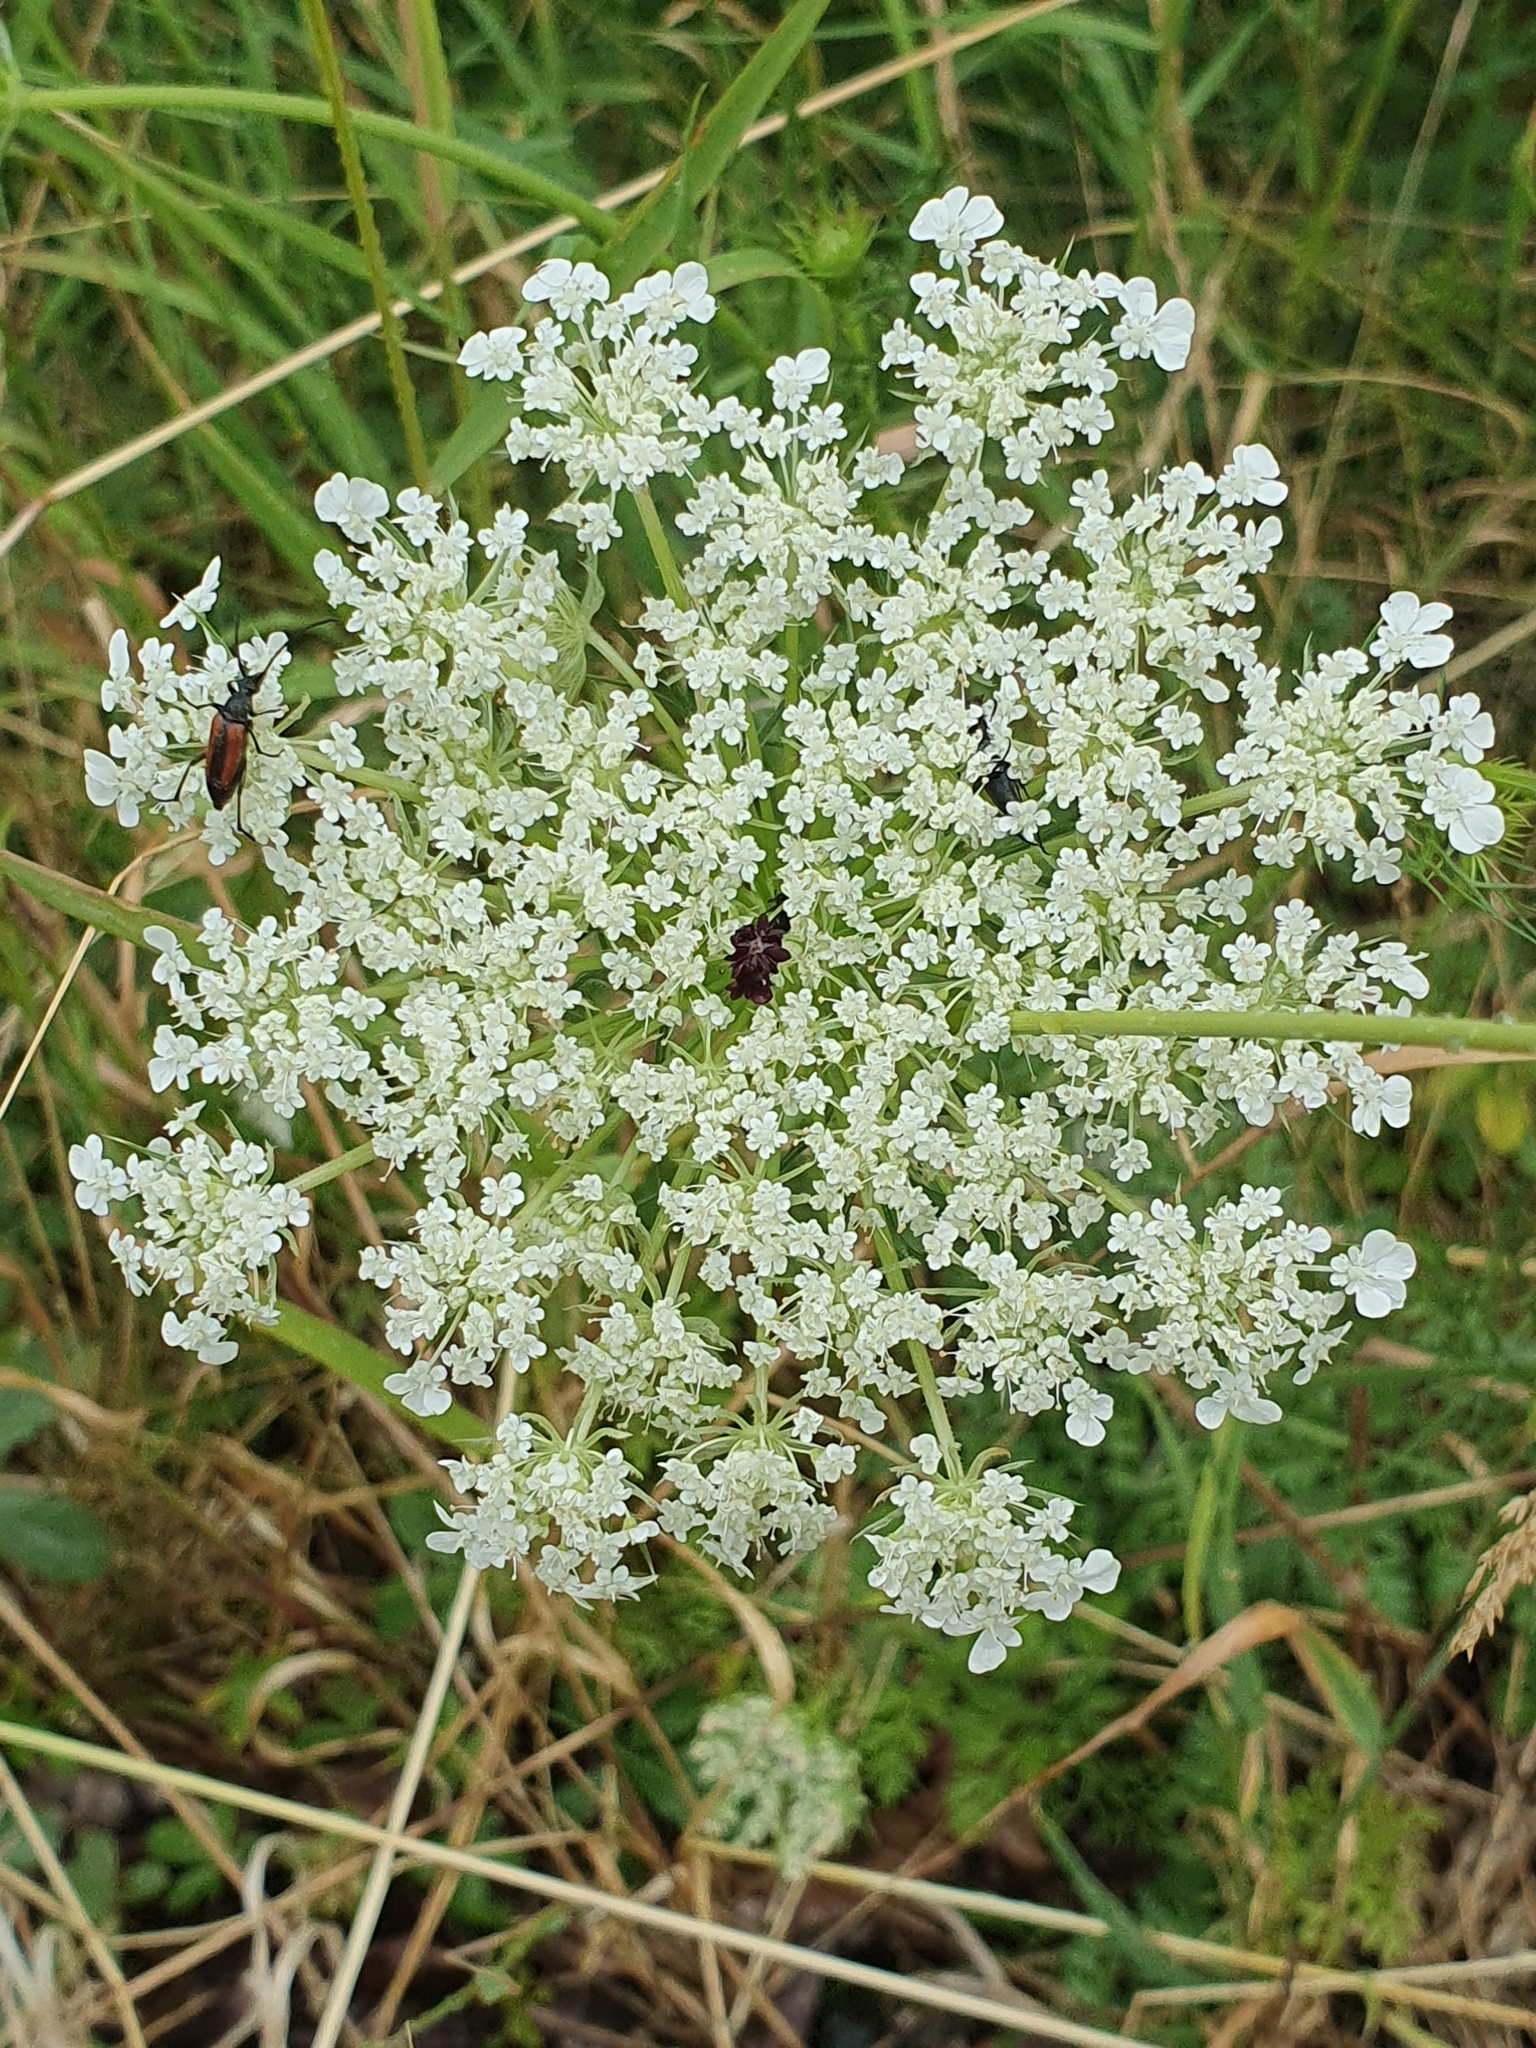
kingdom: Plantae
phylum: Tracheophyta
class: Magnoliopsida
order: Apiales
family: Apiaceae
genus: Daucus
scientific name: Daucus carota
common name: Wild carrot
